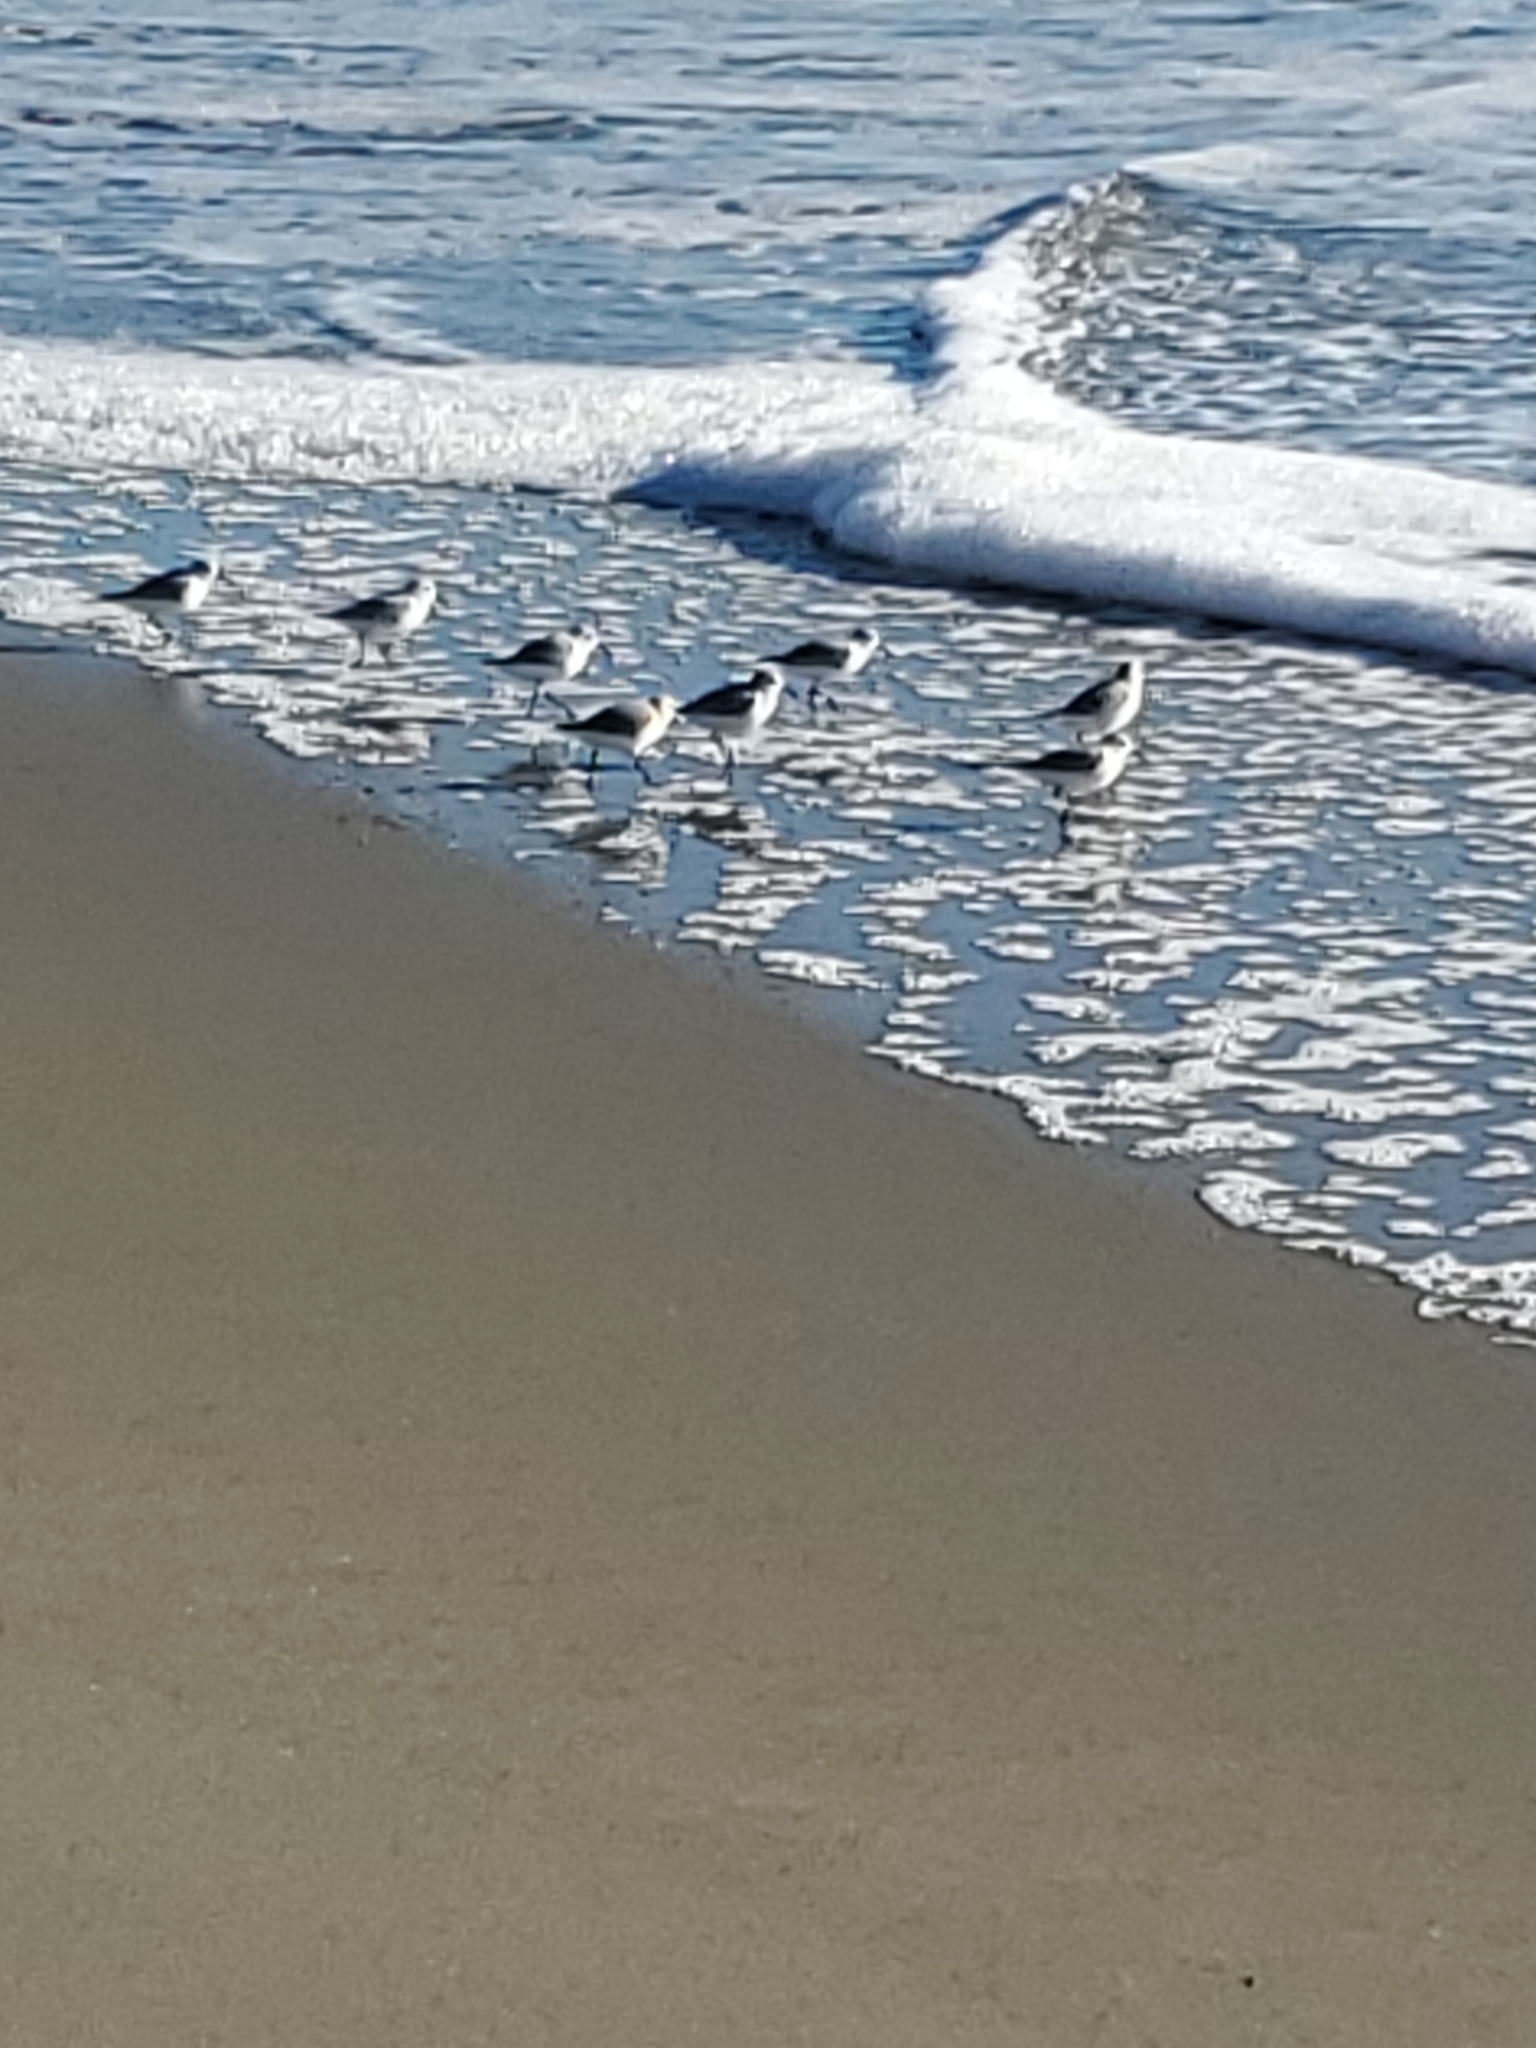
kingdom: Animalia
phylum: Chordata
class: Aves
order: Charadriiformes
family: Scolopacidae
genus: Calidris
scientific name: Calidris alba
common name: Sanderling
